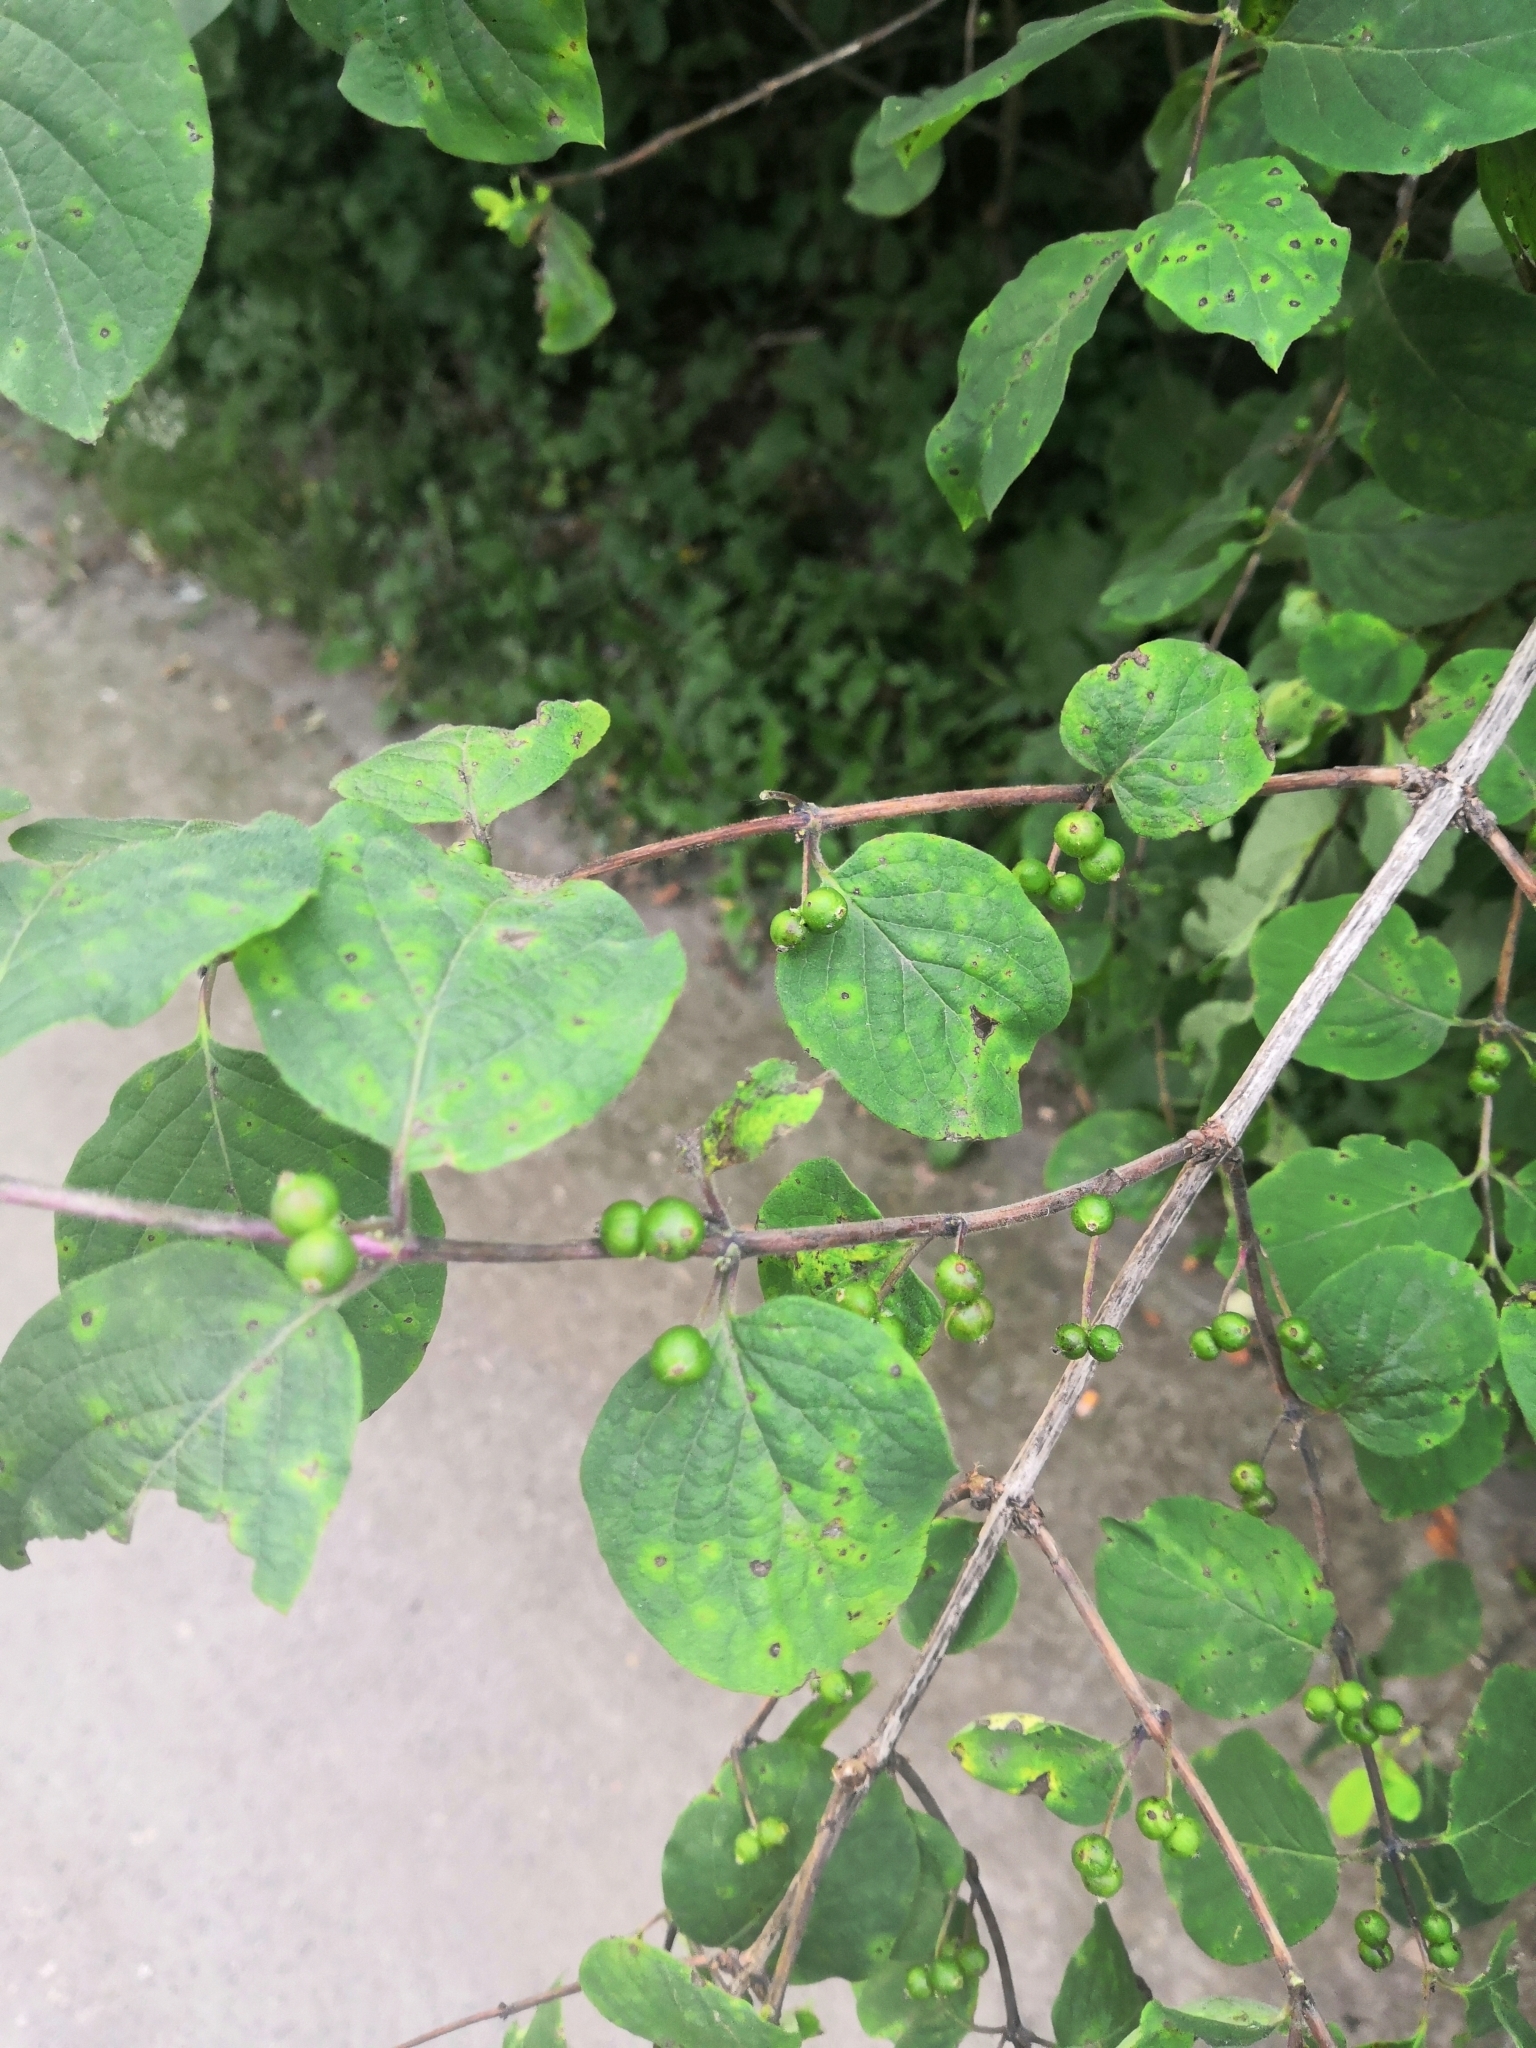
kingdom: Plantae
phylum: Tracheophyta
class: Magnoliopsida
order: Dipsacales
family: Caprifoliaceae
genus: Lonicera
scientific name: Lonicera xylosteum
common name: Fly honeysuckle
